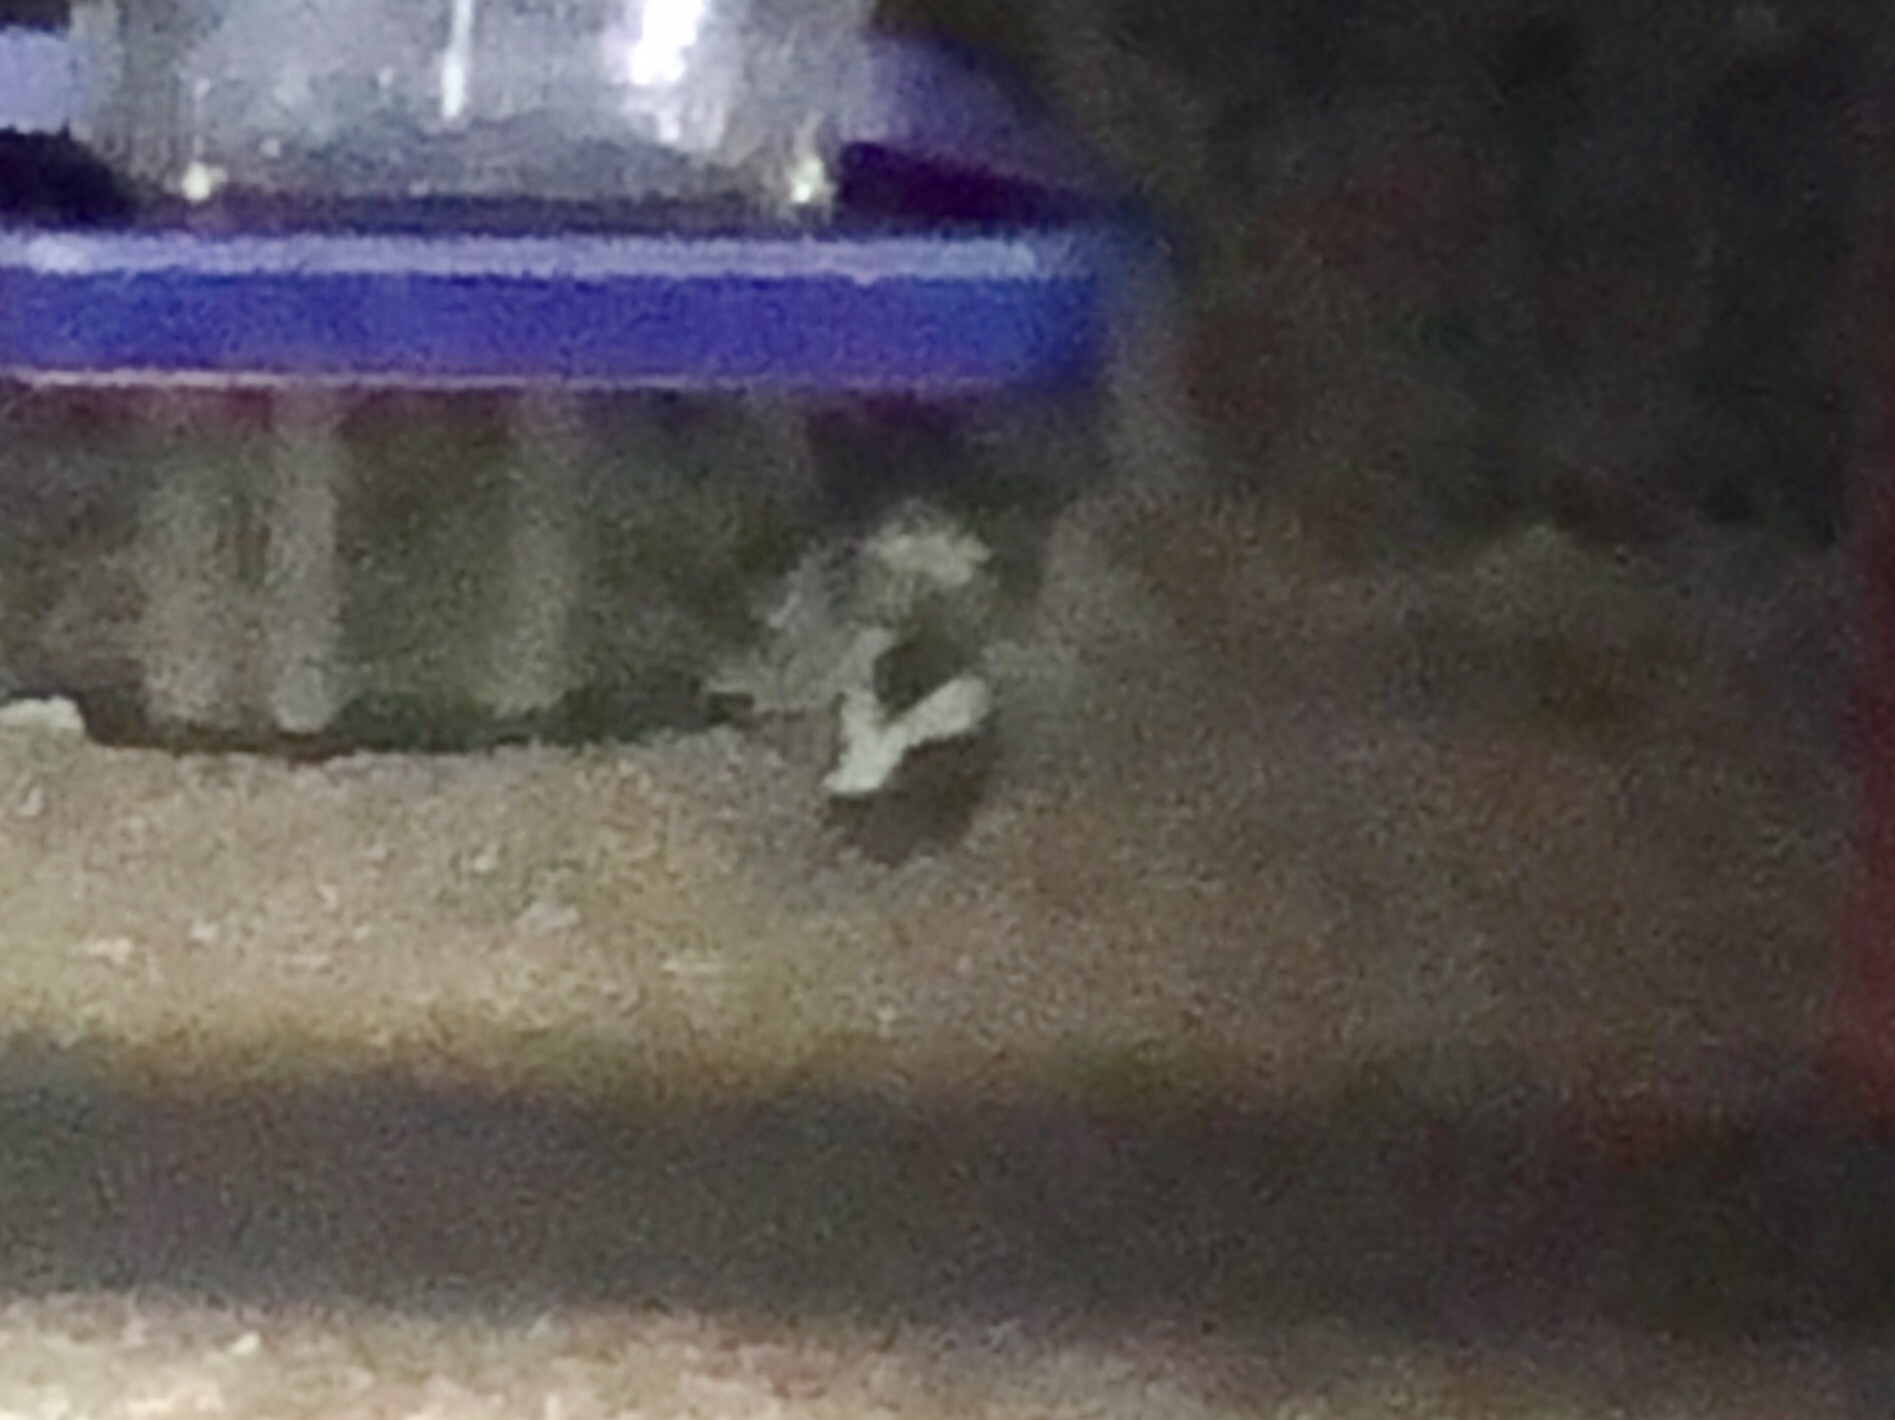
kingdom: Animalia
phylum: Chordata
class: Mammalia
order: Carnivora
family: Mephitidae
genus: Mephitis
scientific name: Mephitis mephitis
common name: Striped skunk
